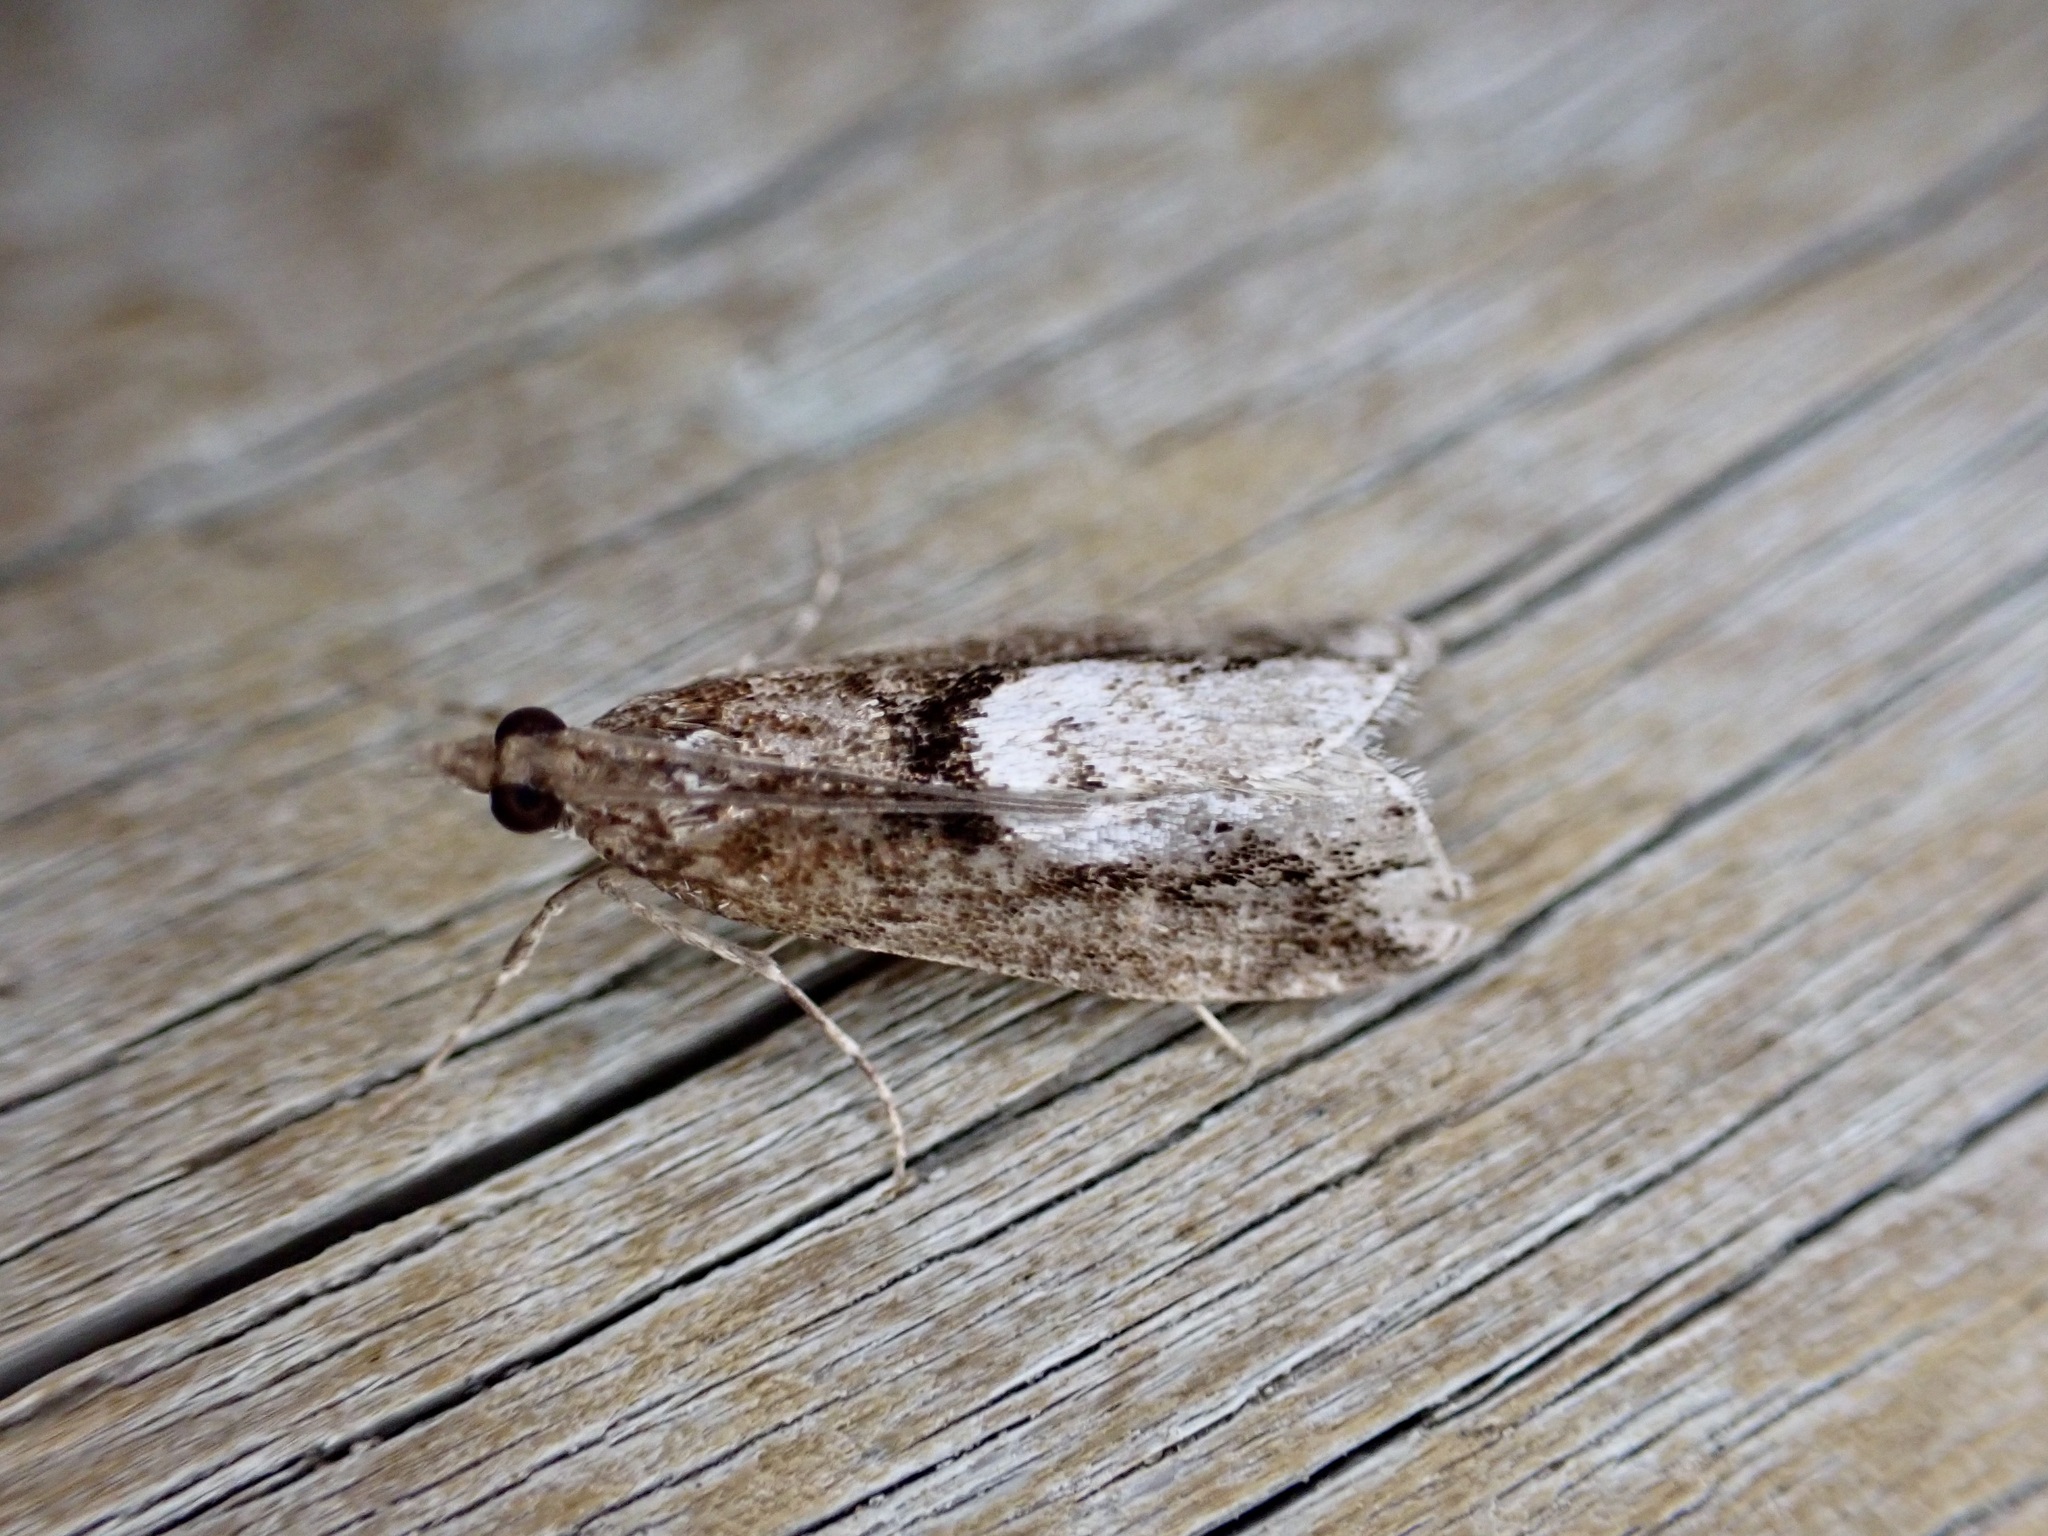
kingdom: Animalia
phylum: Arthropoda
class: Insecta
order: Lepidoptera
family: Crambidae
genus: Eudonia
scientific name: Eudonia hemiplaca
